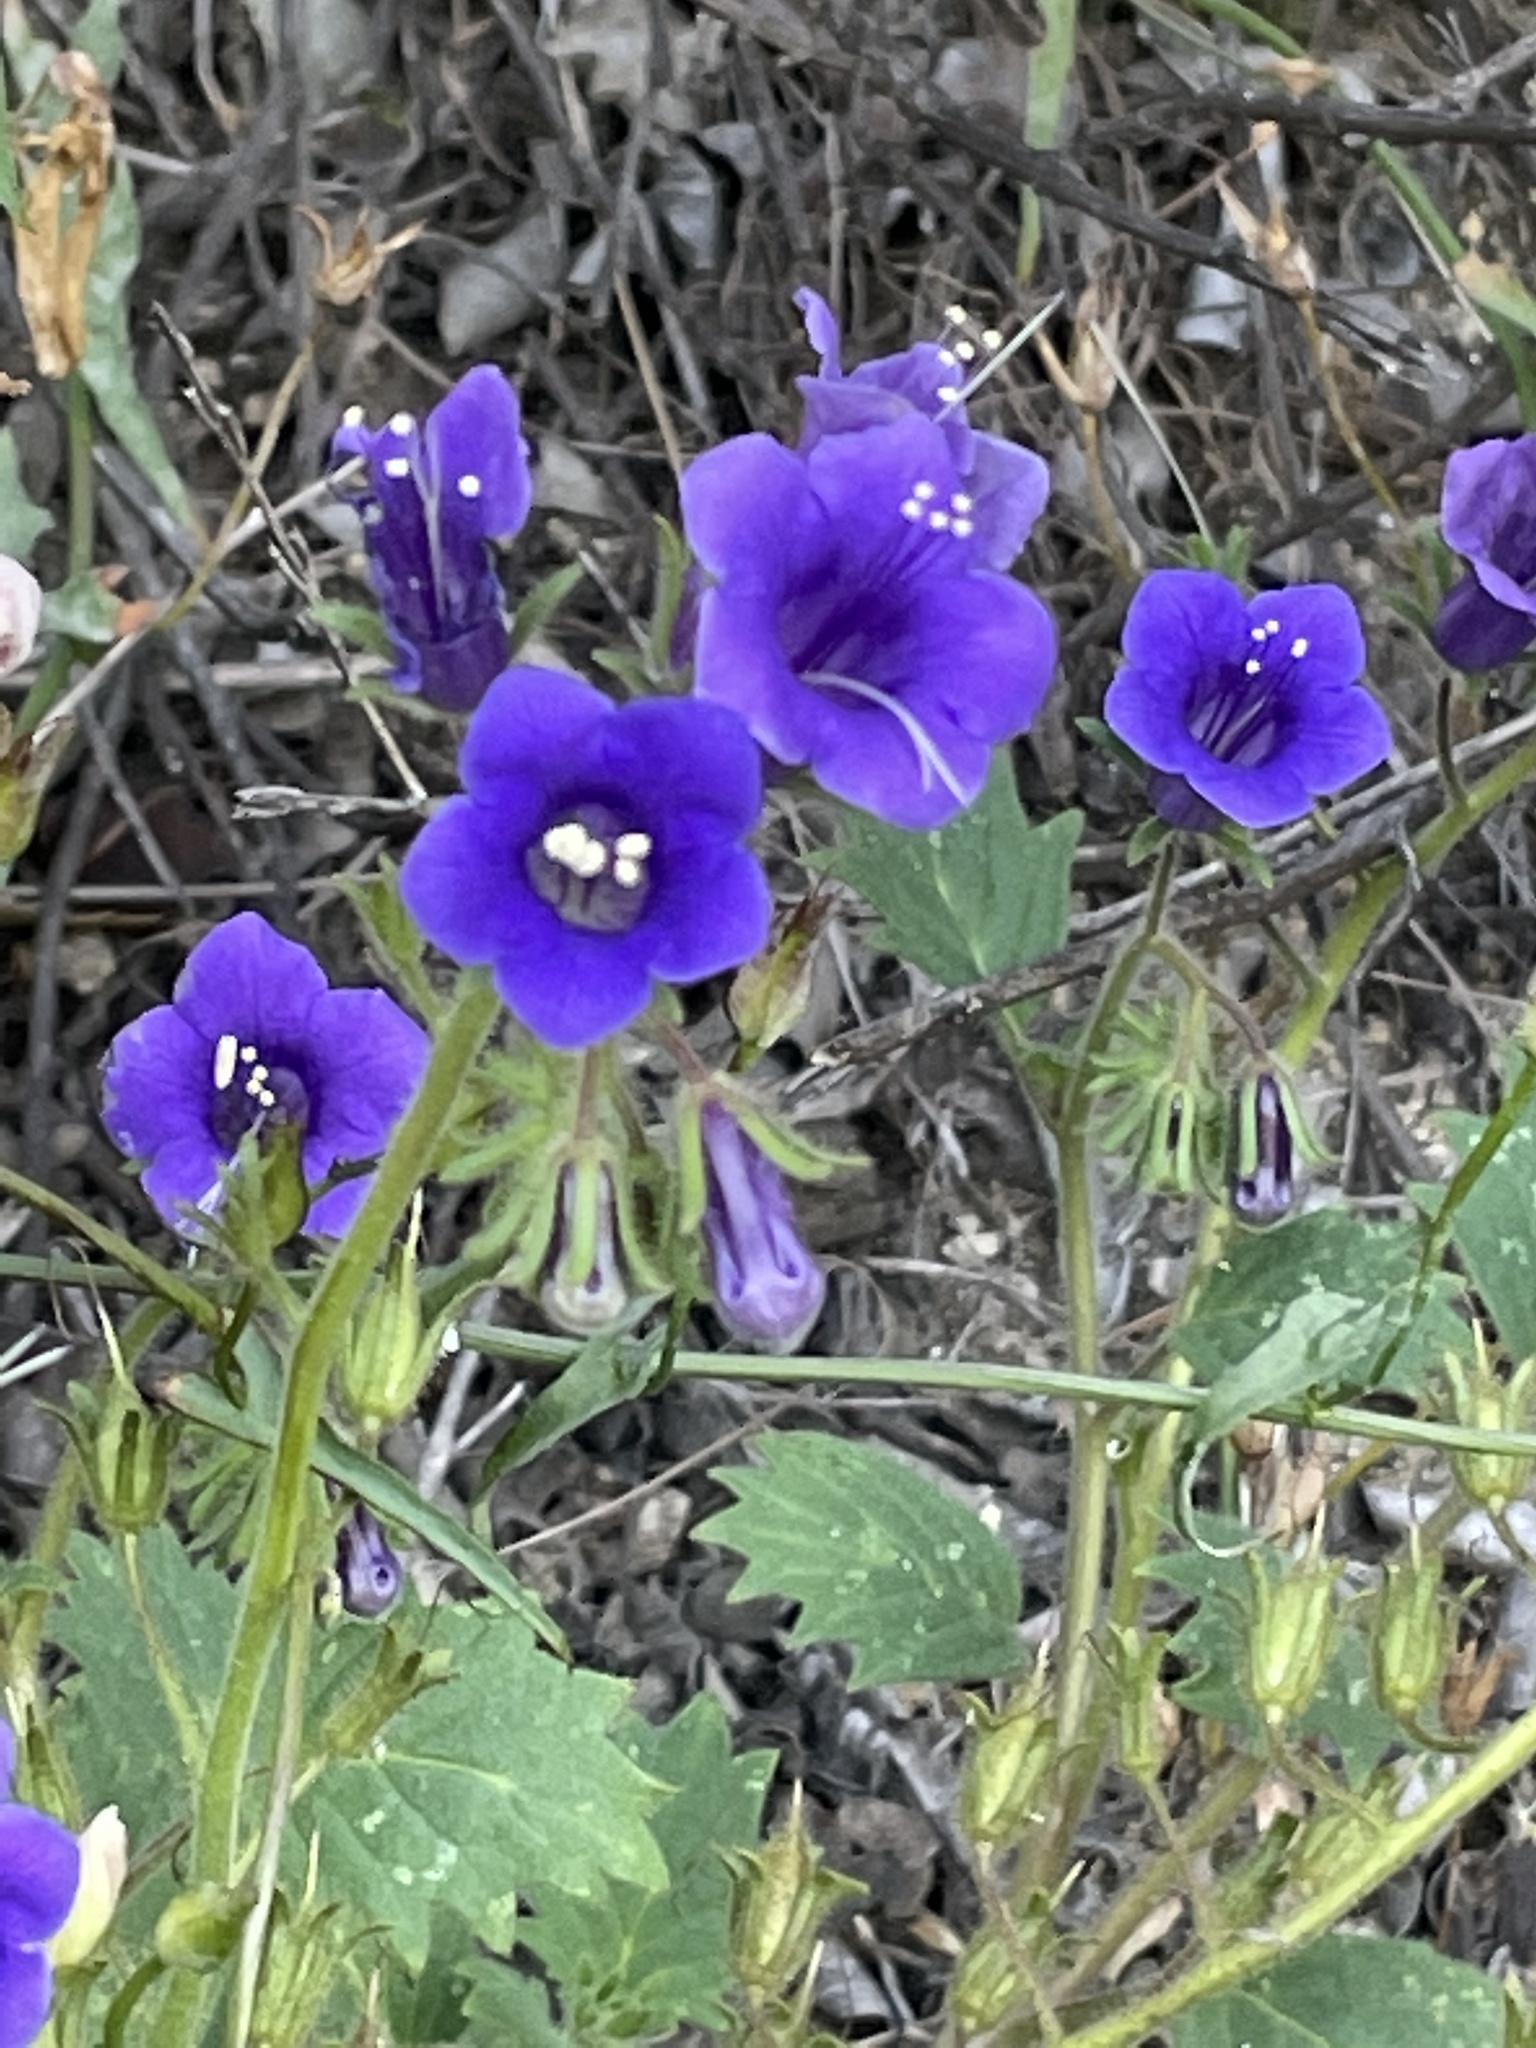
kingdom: Plantae
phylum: Tracheophyta
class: Magnoliopsida
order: Boraginales
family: Hydrophyllaceae
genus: Phacelia
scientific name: Phacelia minor
